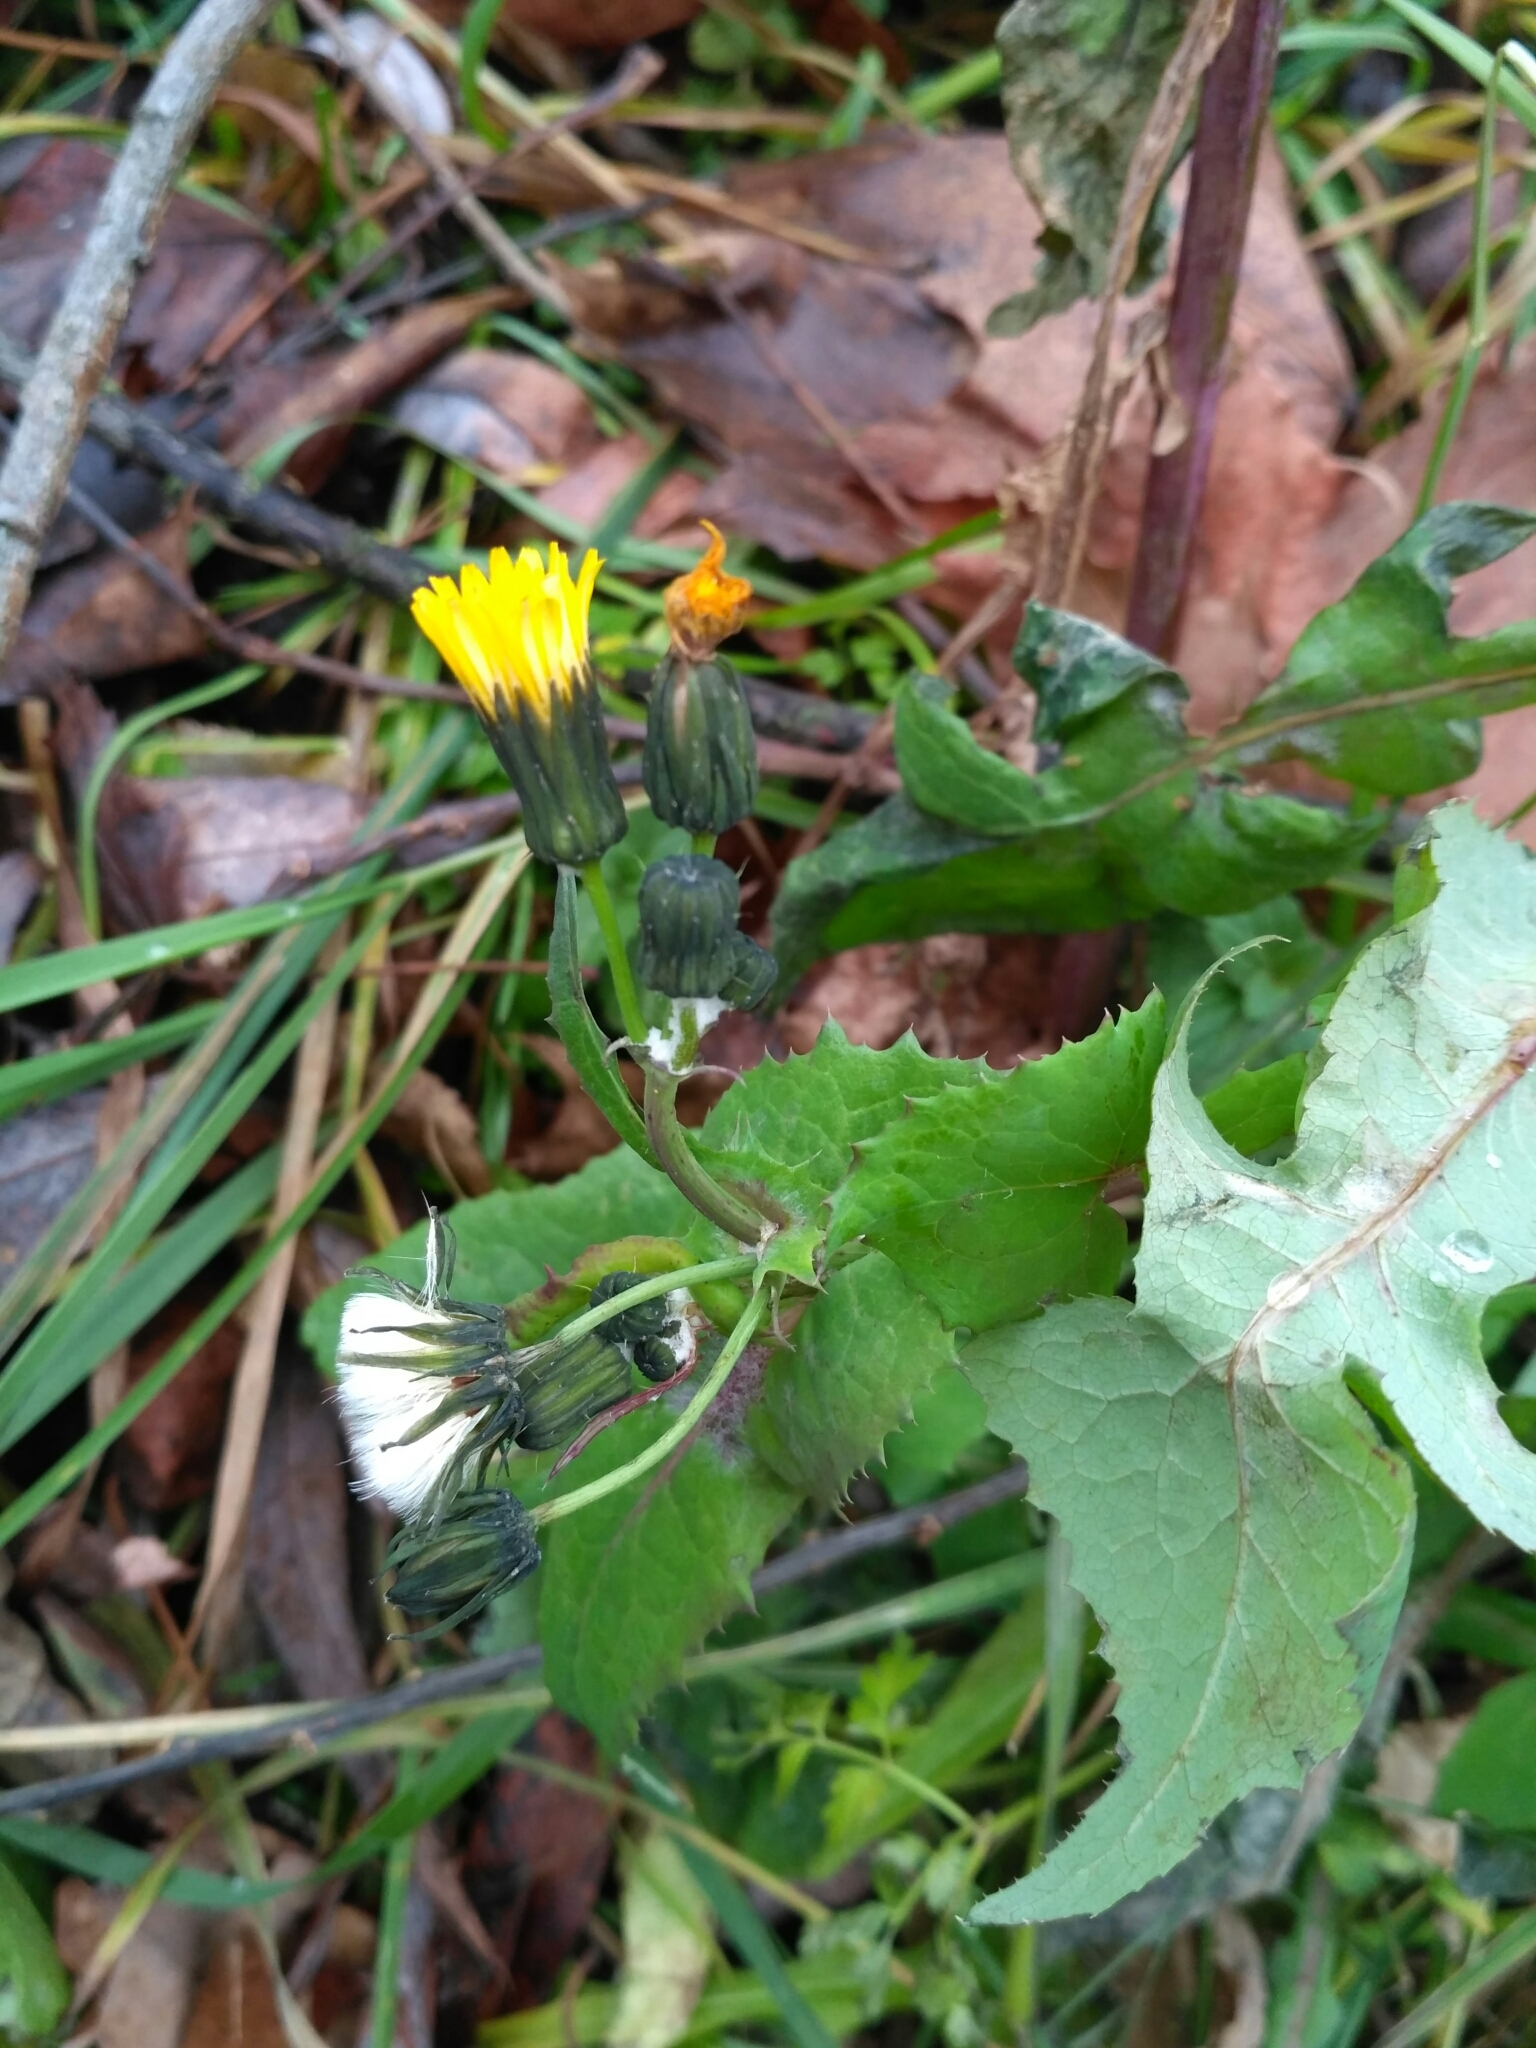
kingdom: Plantae
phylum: Tracheophyta
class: Magnoliopsida
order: Asterales
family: Asteraceae
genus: Sonchus
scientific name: Sonchus oleraceus
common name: Common sowthistle
